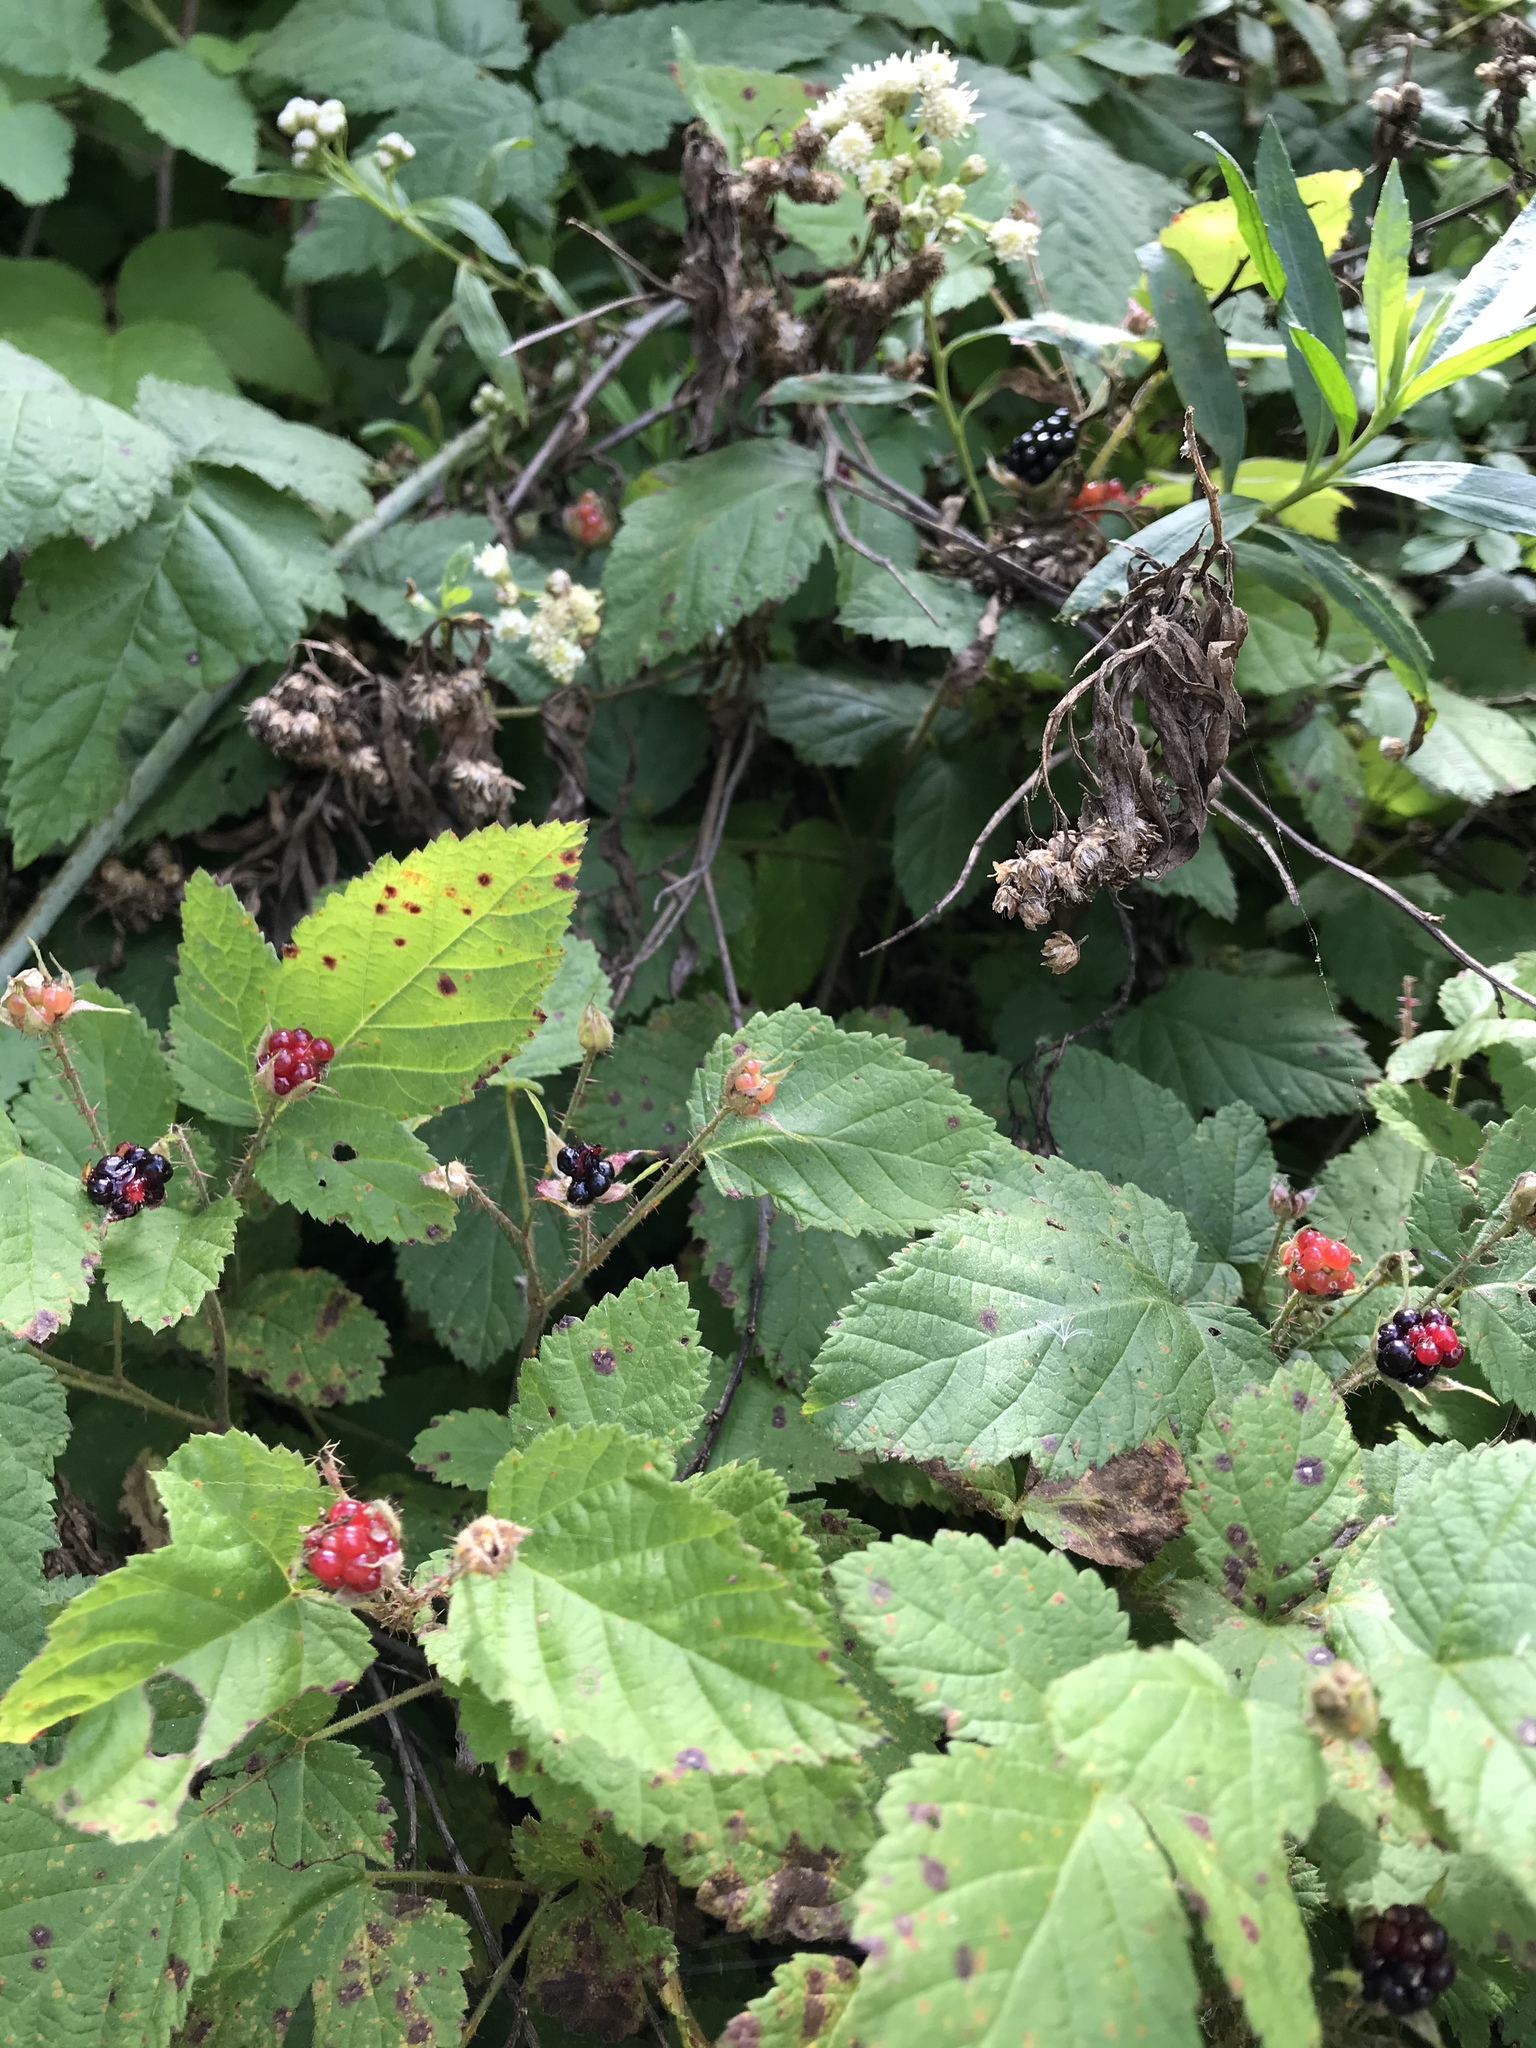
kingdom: Plantae
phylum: Tracheophyta
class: Magnoliopsida
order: Rosales
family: Rosaceae
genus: Rubus
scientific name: Rubus ursinus
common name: Pacific blackberry
